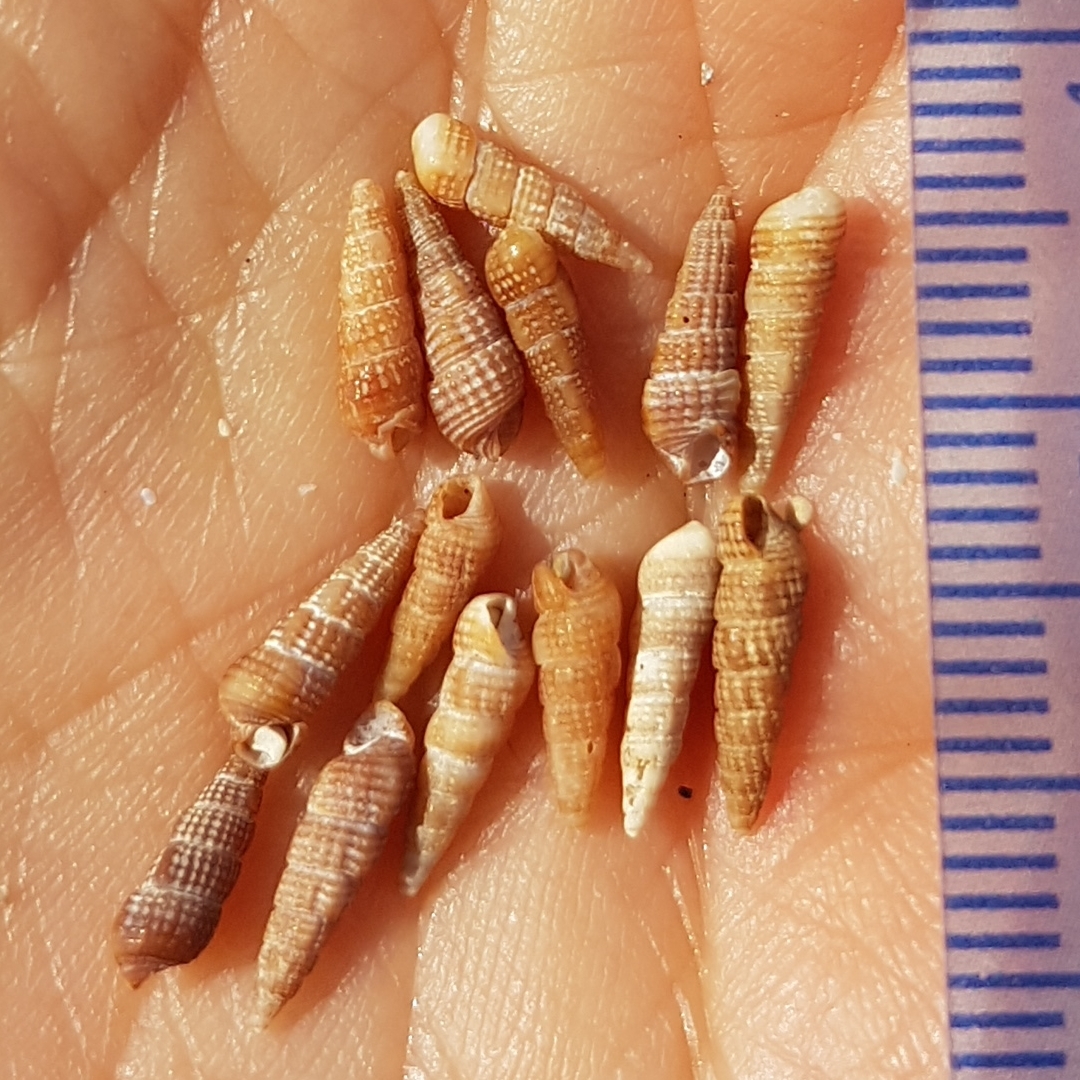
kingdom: Animalia
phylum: Mollusca
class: Gastropoda
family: Cerithiidae
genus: Bittium
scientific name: Bittium reticulatum
